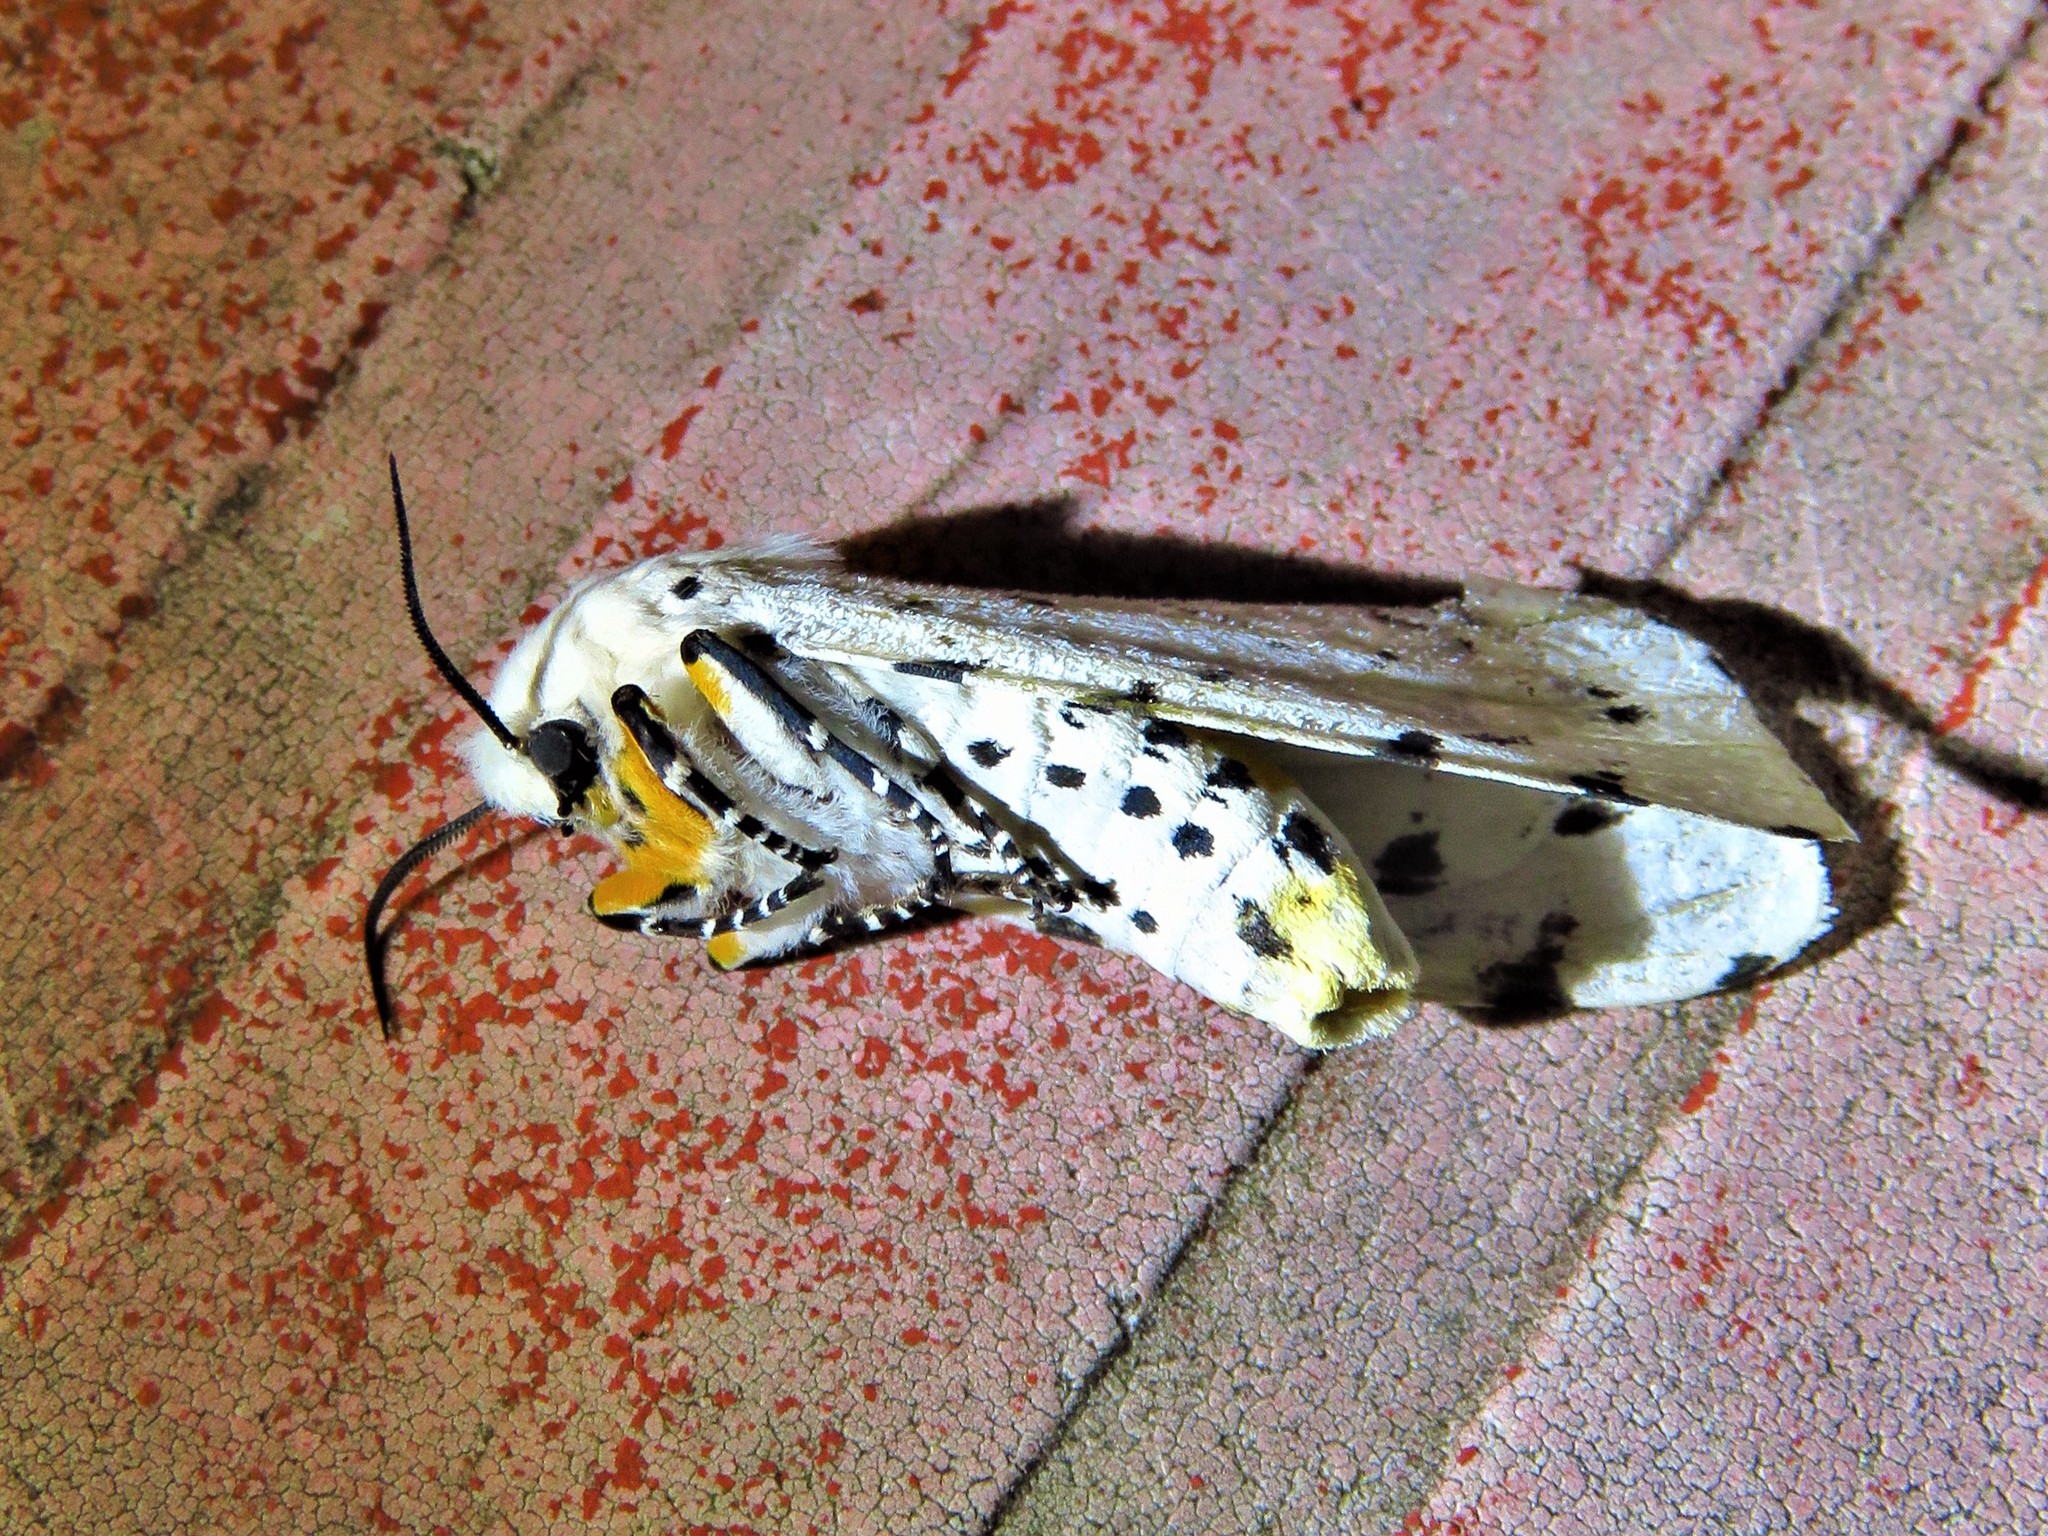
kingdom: Animalia
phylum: Arthropoda
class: Insecta
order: Lepidoptera
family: Erebidae
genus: Estigmene
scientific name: Estigmene acrea
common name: Salt marsh moth
